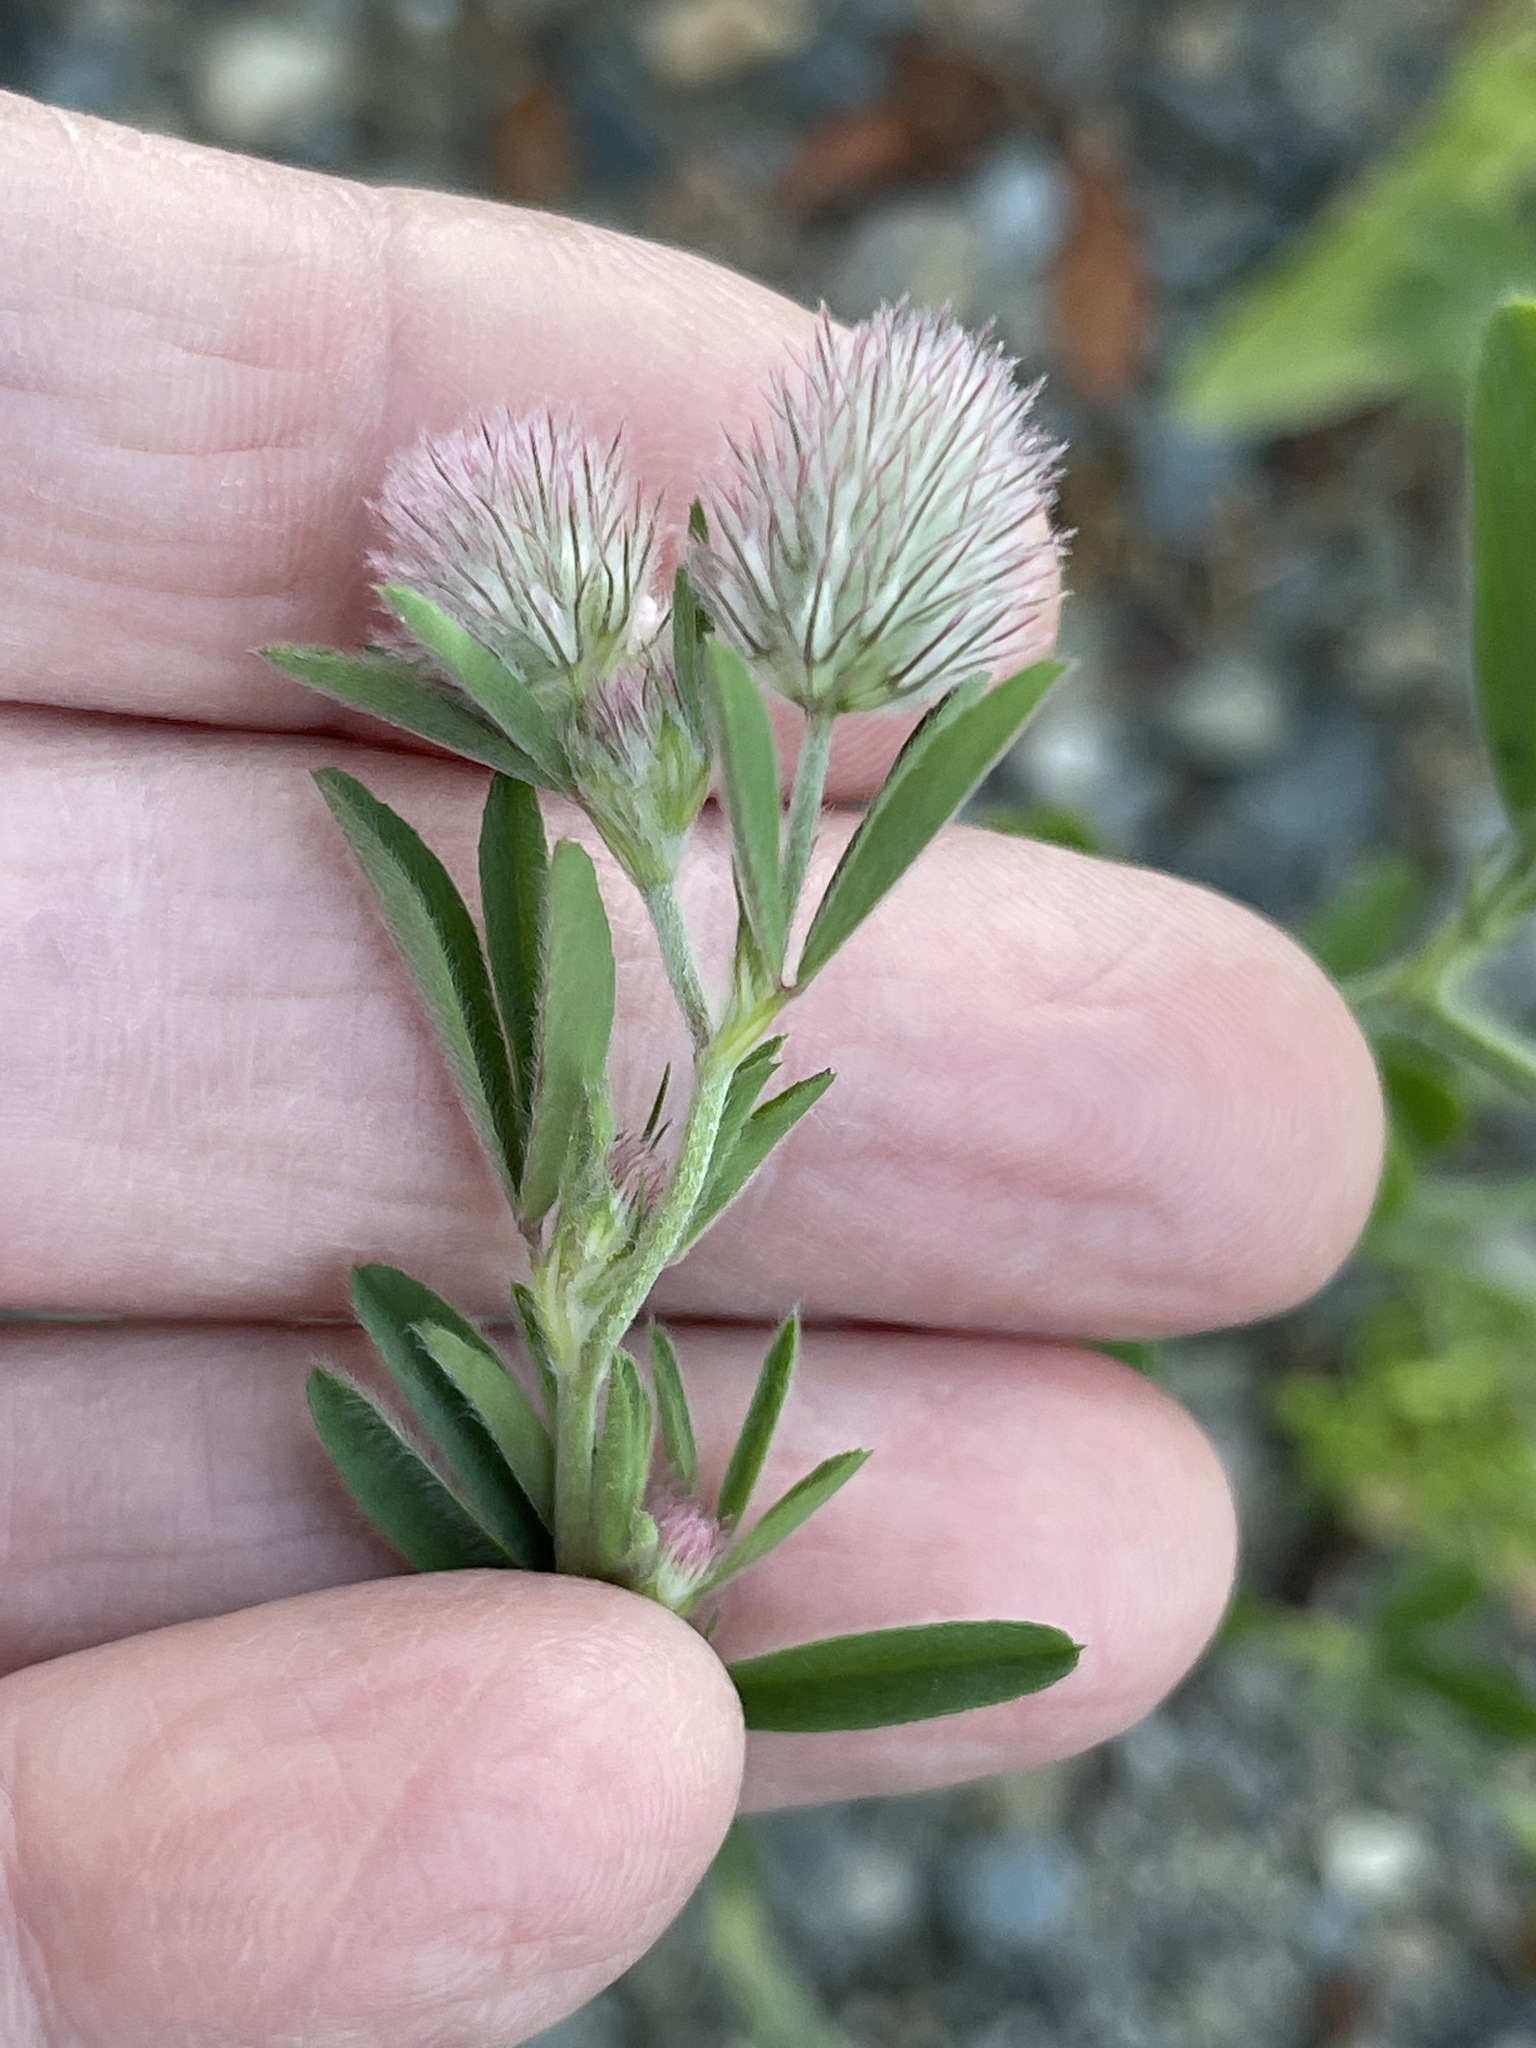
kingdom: Plantae
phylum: Tracheophyta
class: Magnoliopsida
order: Fabales
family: Fabaceae
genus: Trifolium
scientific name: Trifolium arvense
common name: Hare's-foot clover
